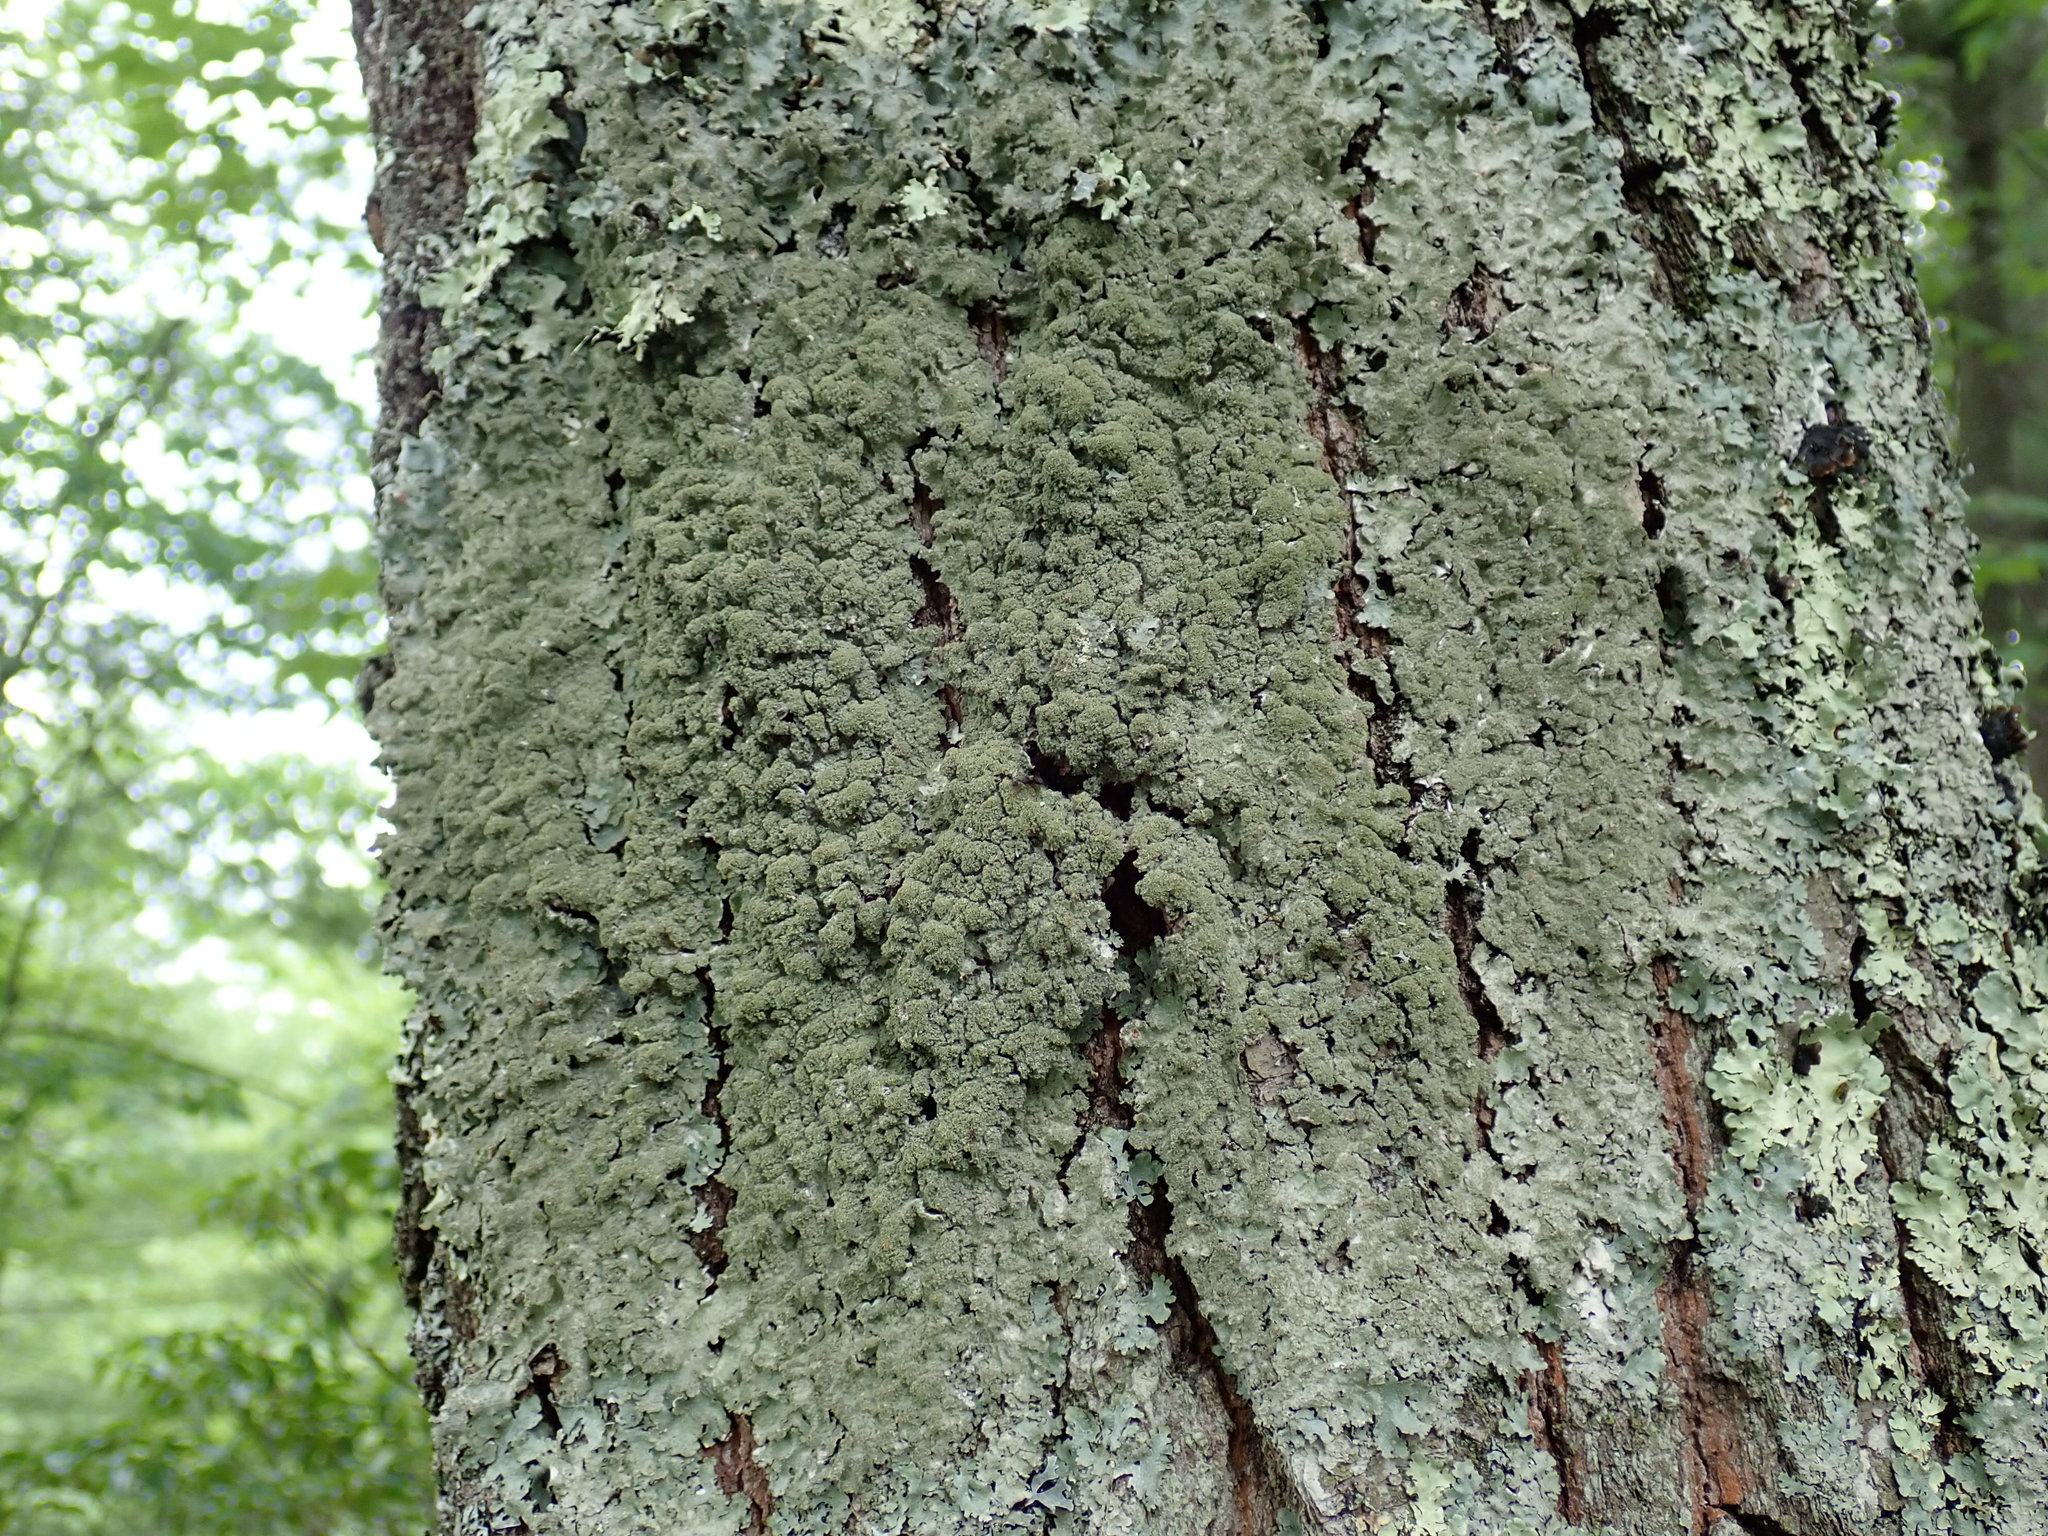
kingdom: Fungi
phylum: Ascomycota
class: Lecanoromycetes
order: Lecanorales
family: Parmeliaceae
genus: Punctelia
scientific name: Punctelia rudecta
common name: Rough speckled shield lichen
